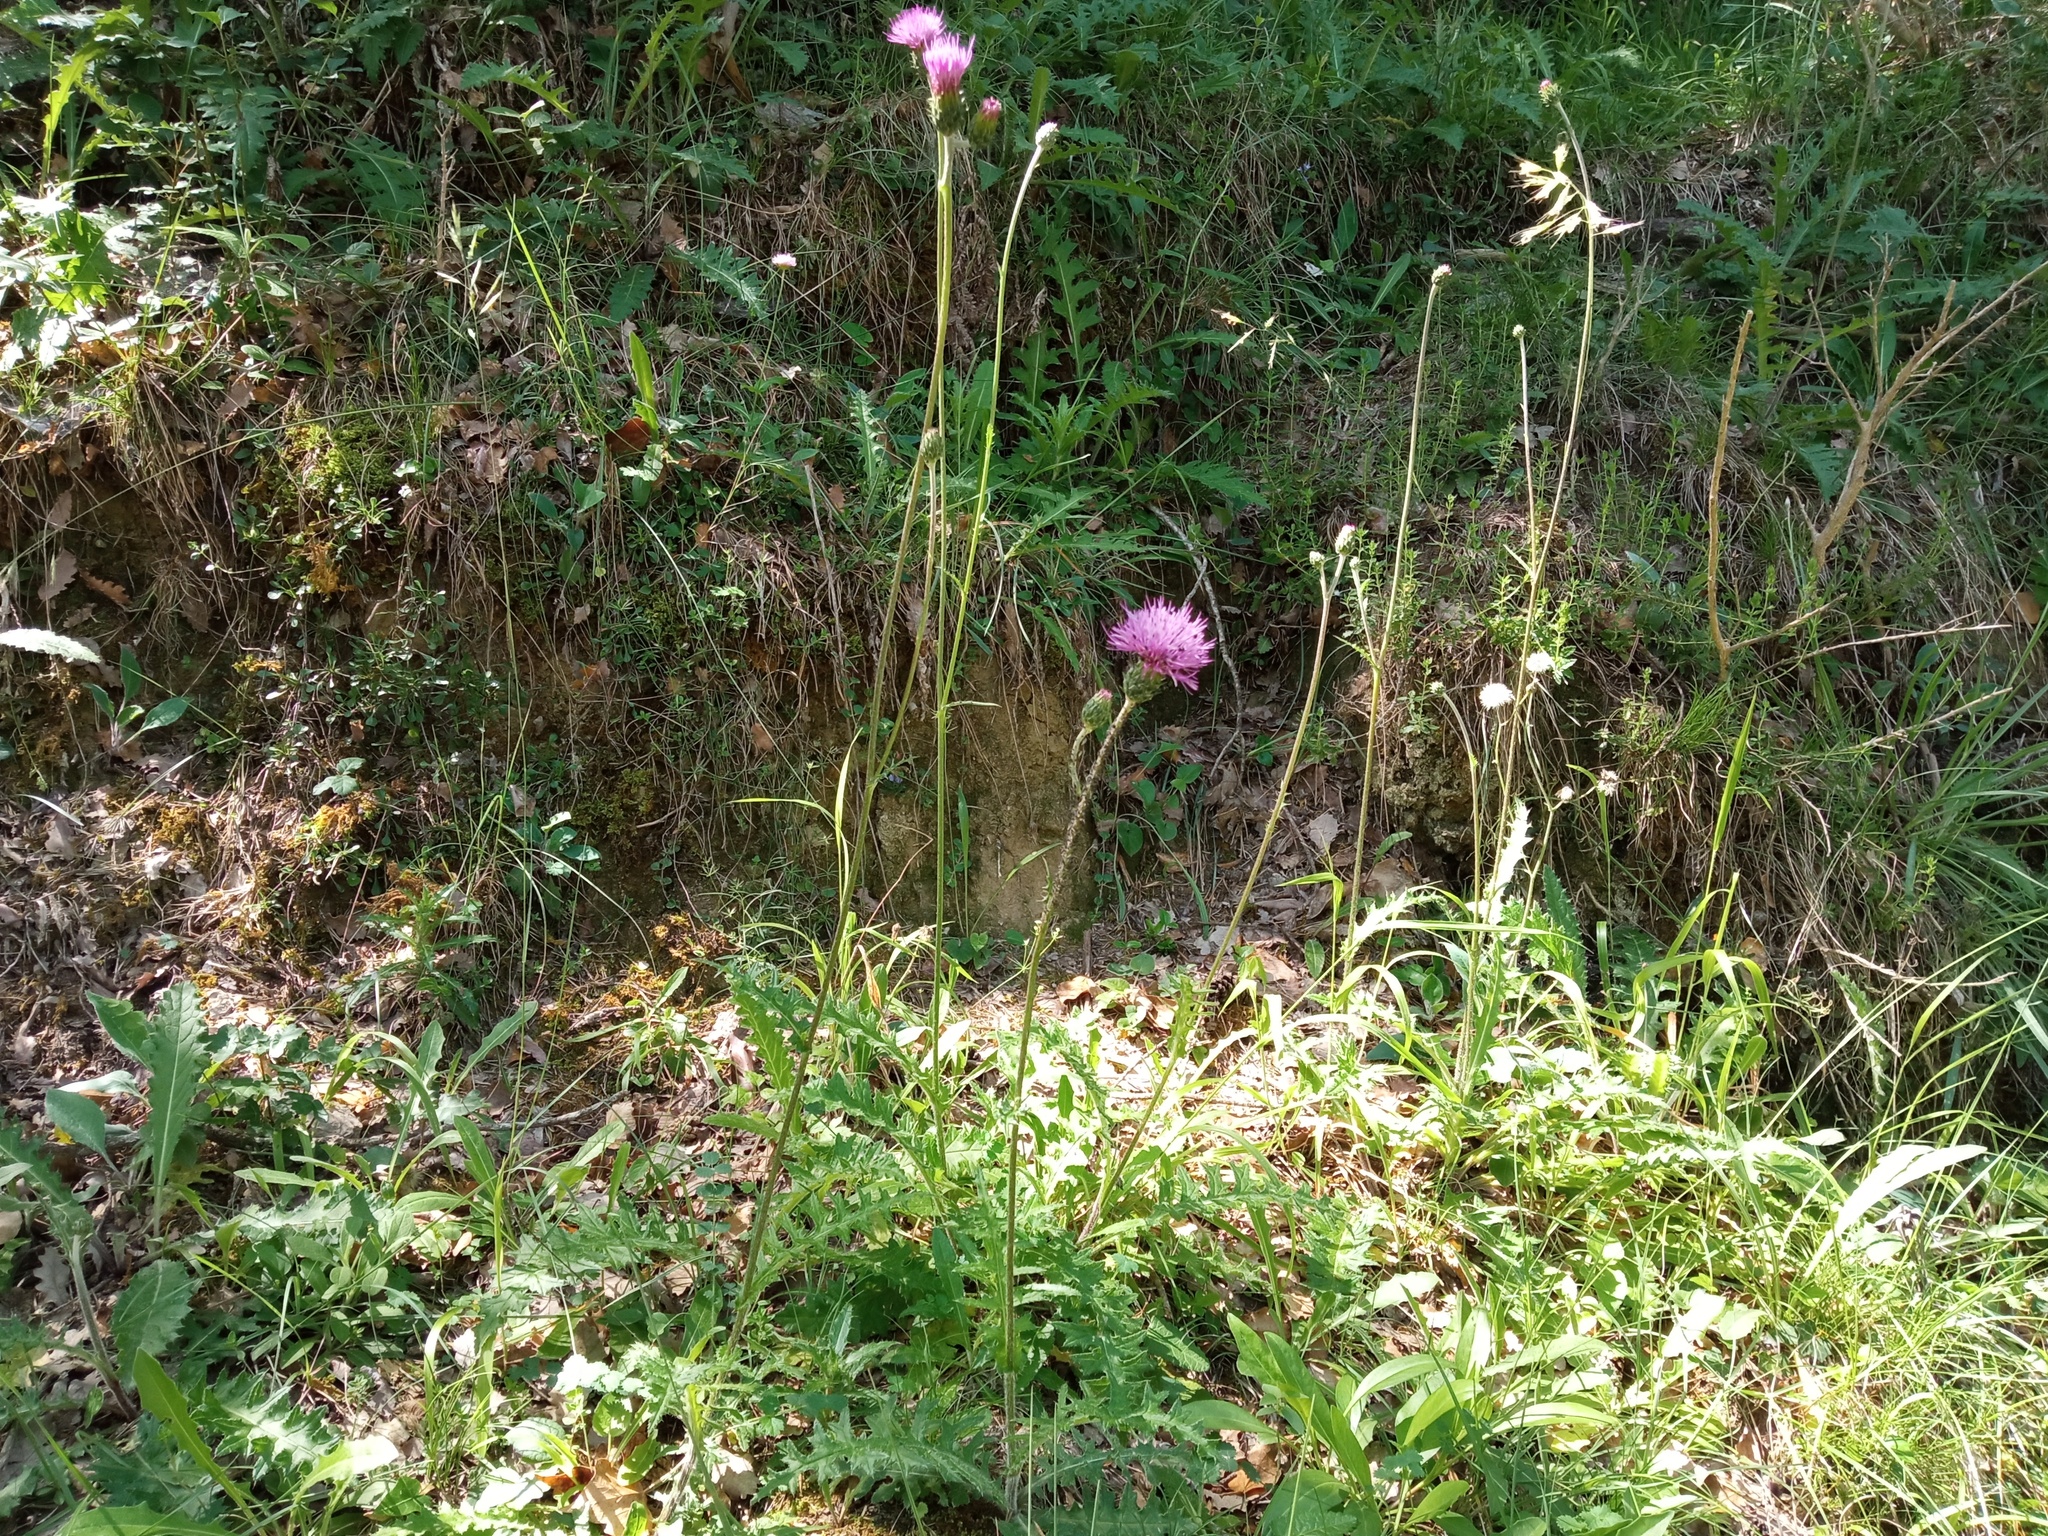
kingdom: Plantae
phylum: Tracheophyta
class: Magnoliopsida
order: Asterales
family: Asteraceae
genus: Cirsium
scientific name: Cirsium tuberosum
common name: Tuberous thistle
